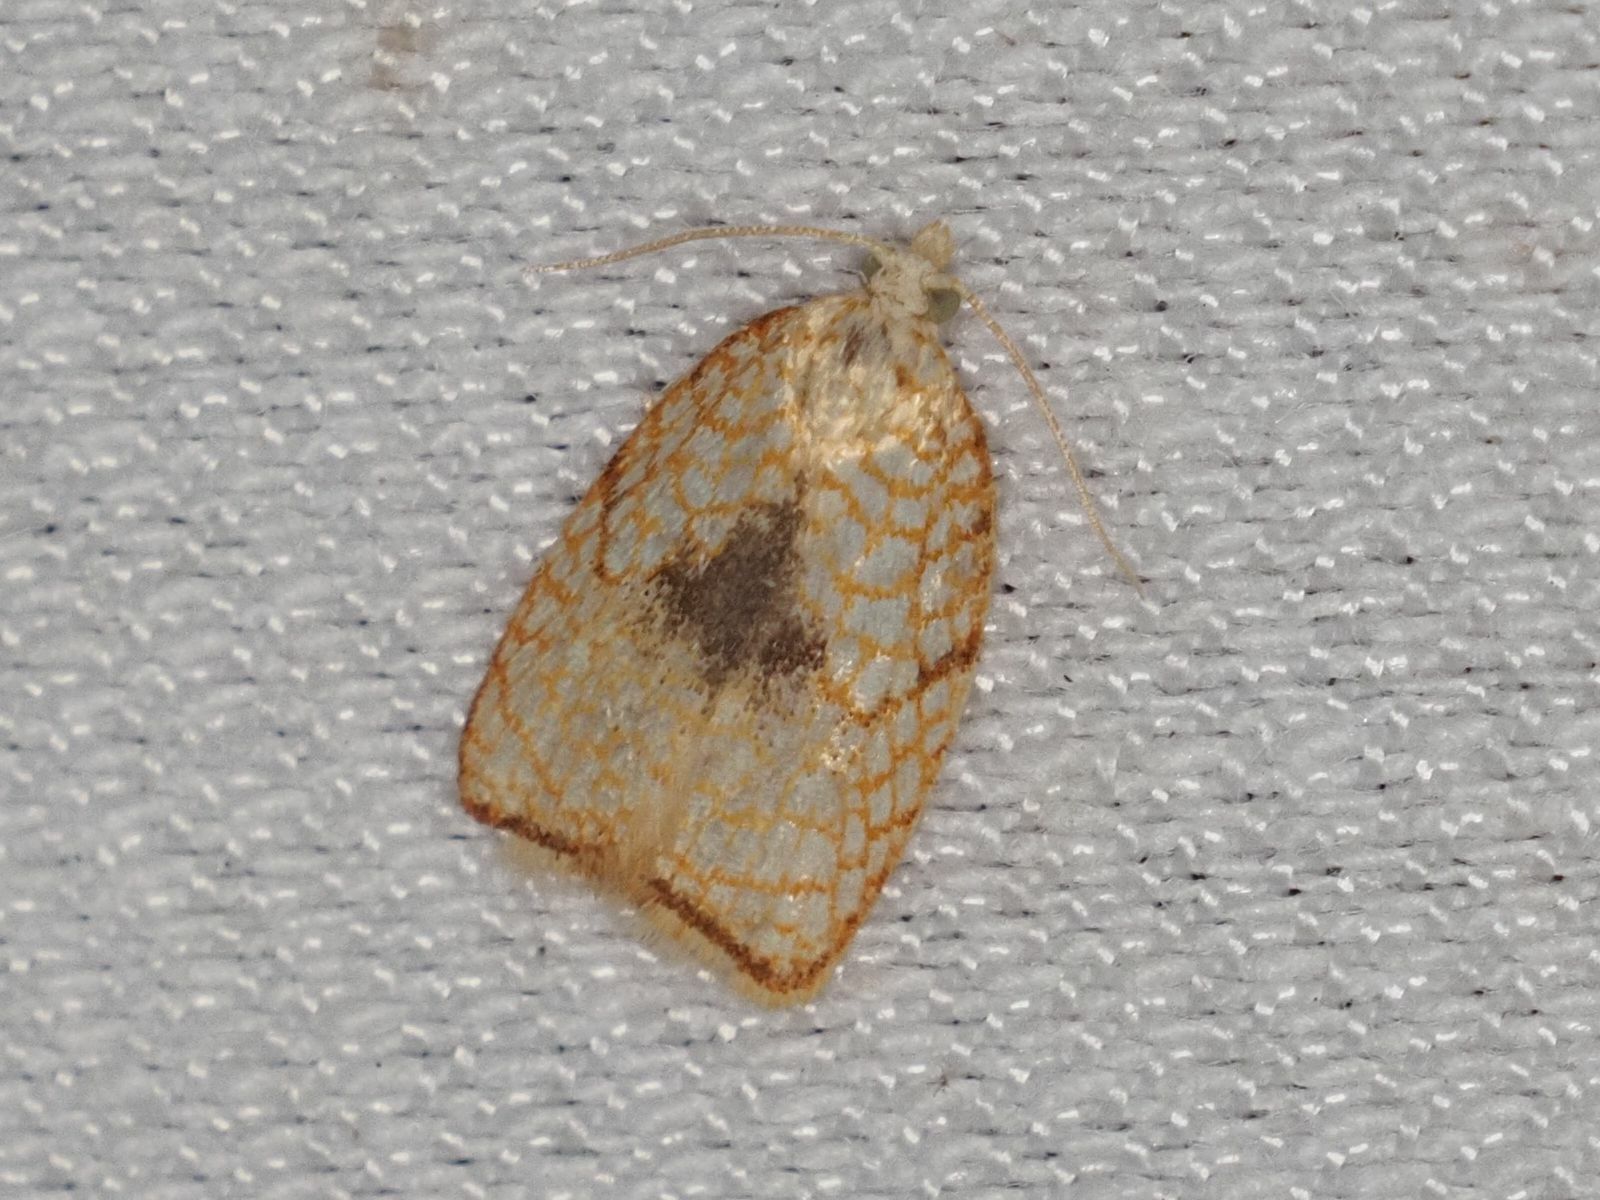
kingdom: Animalia
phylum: Arthropoda
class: Insecta
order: Lepidoptera
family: Tortricidae
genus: Acleris
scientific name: Acleris forsskaleana
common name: Maple button
